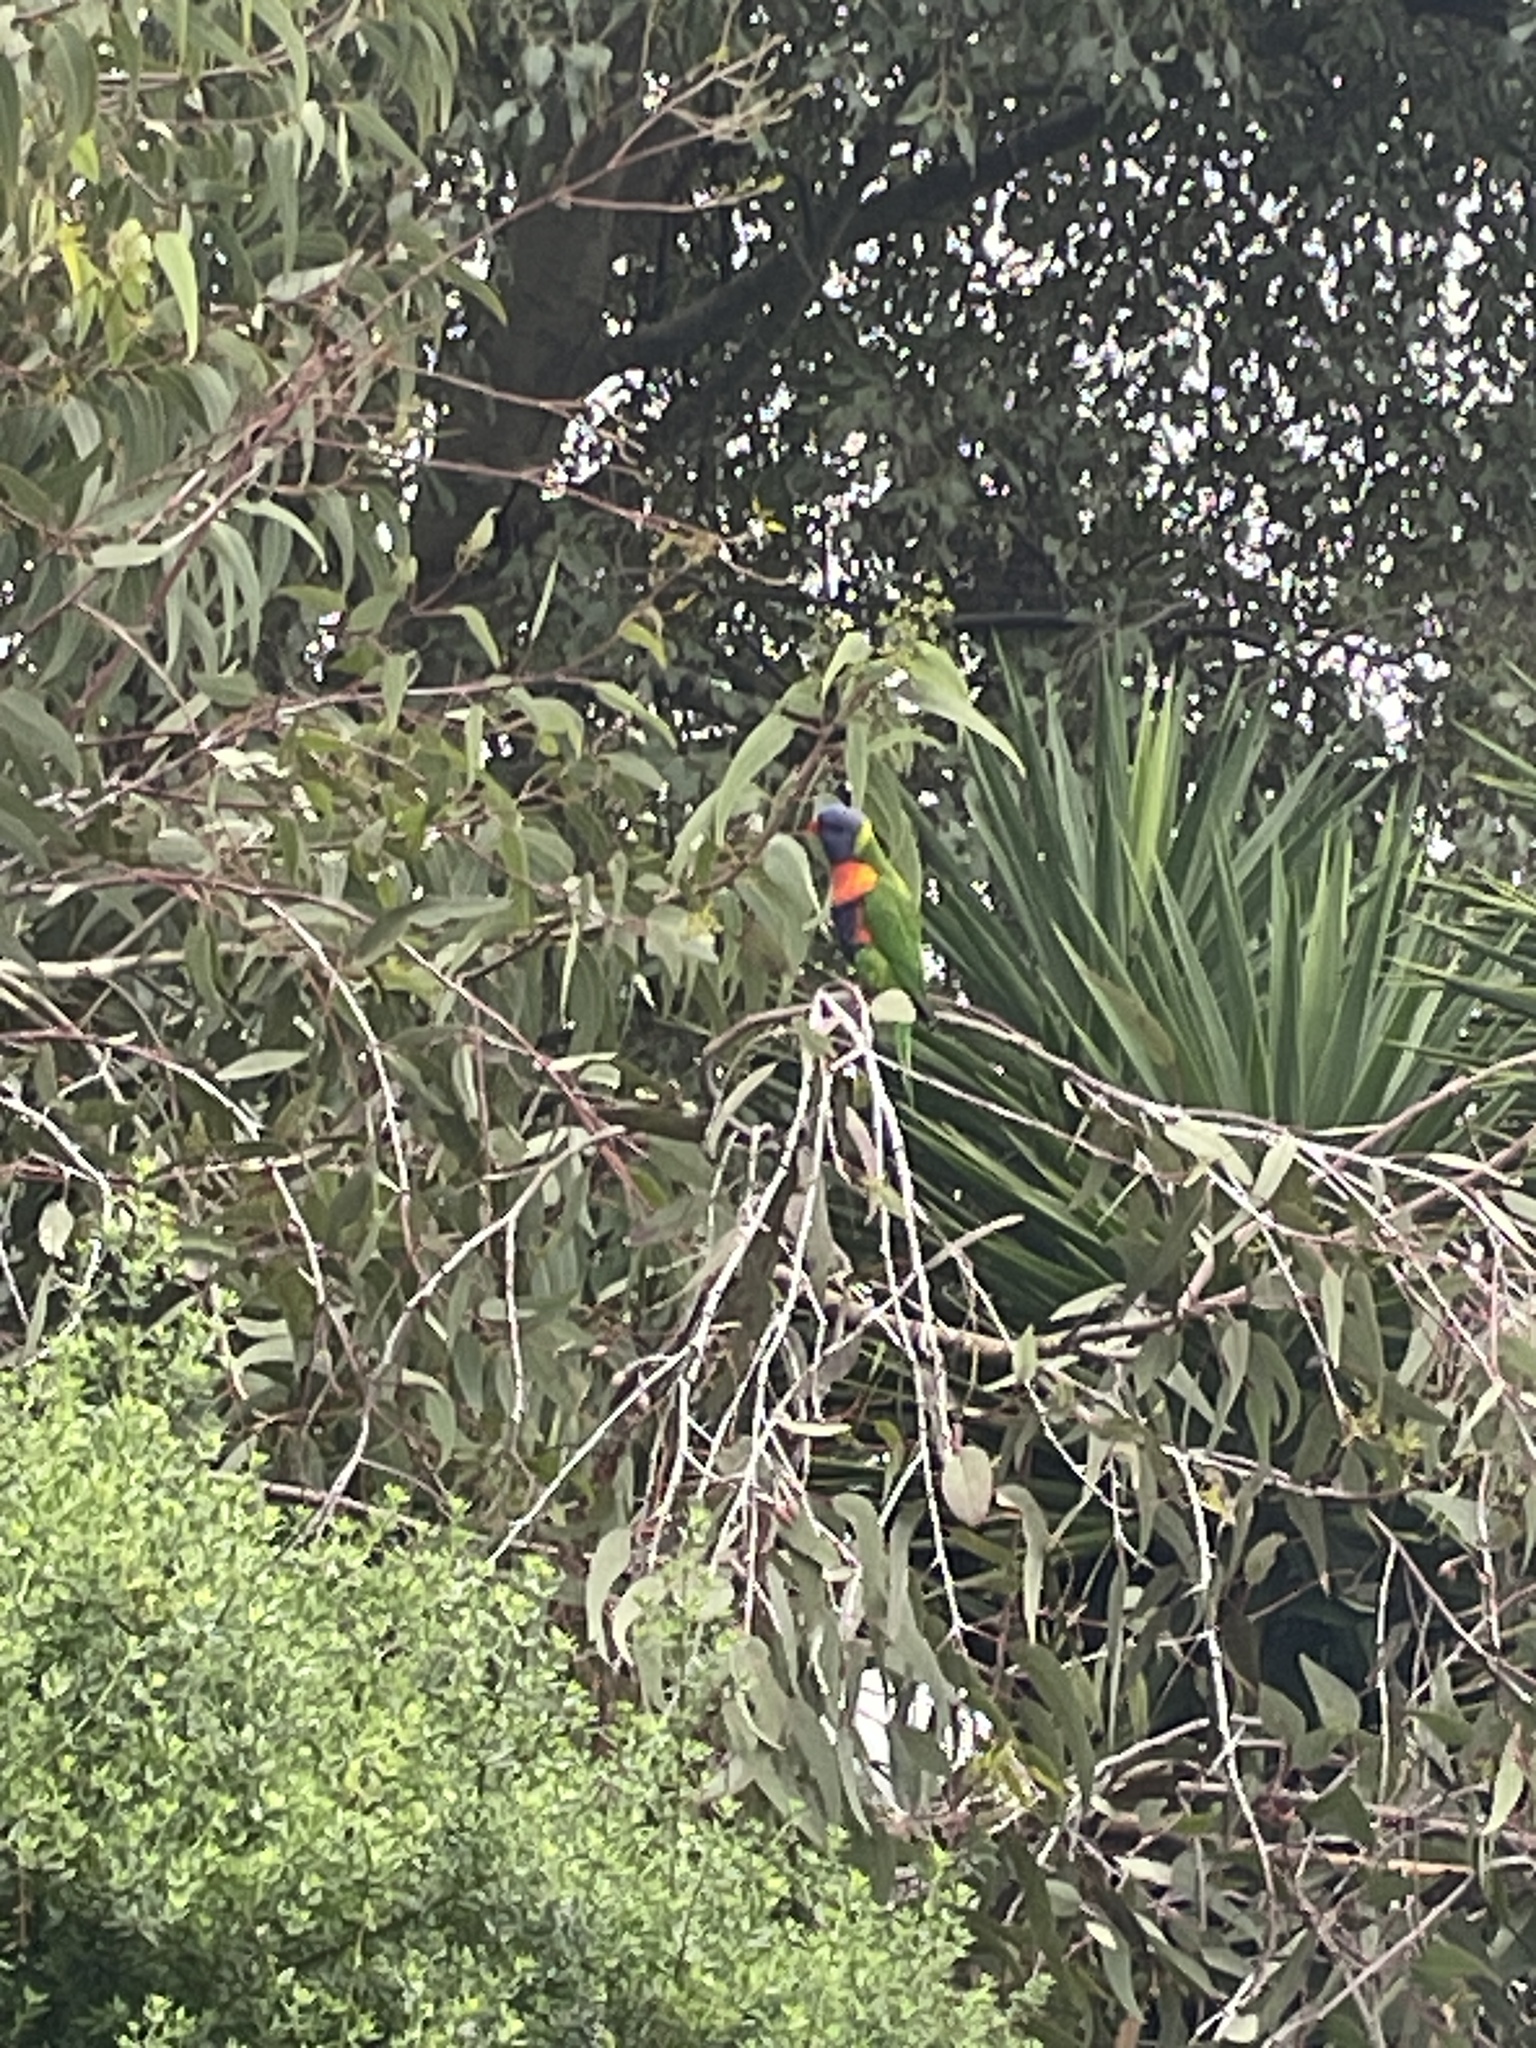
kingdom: Animalia
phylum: Chordata
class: Aves
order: Psittaciformes
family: Psittacidae
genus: Trichoglossus
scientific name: Trichoglossus haematodus
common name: Coconut lorikeet
